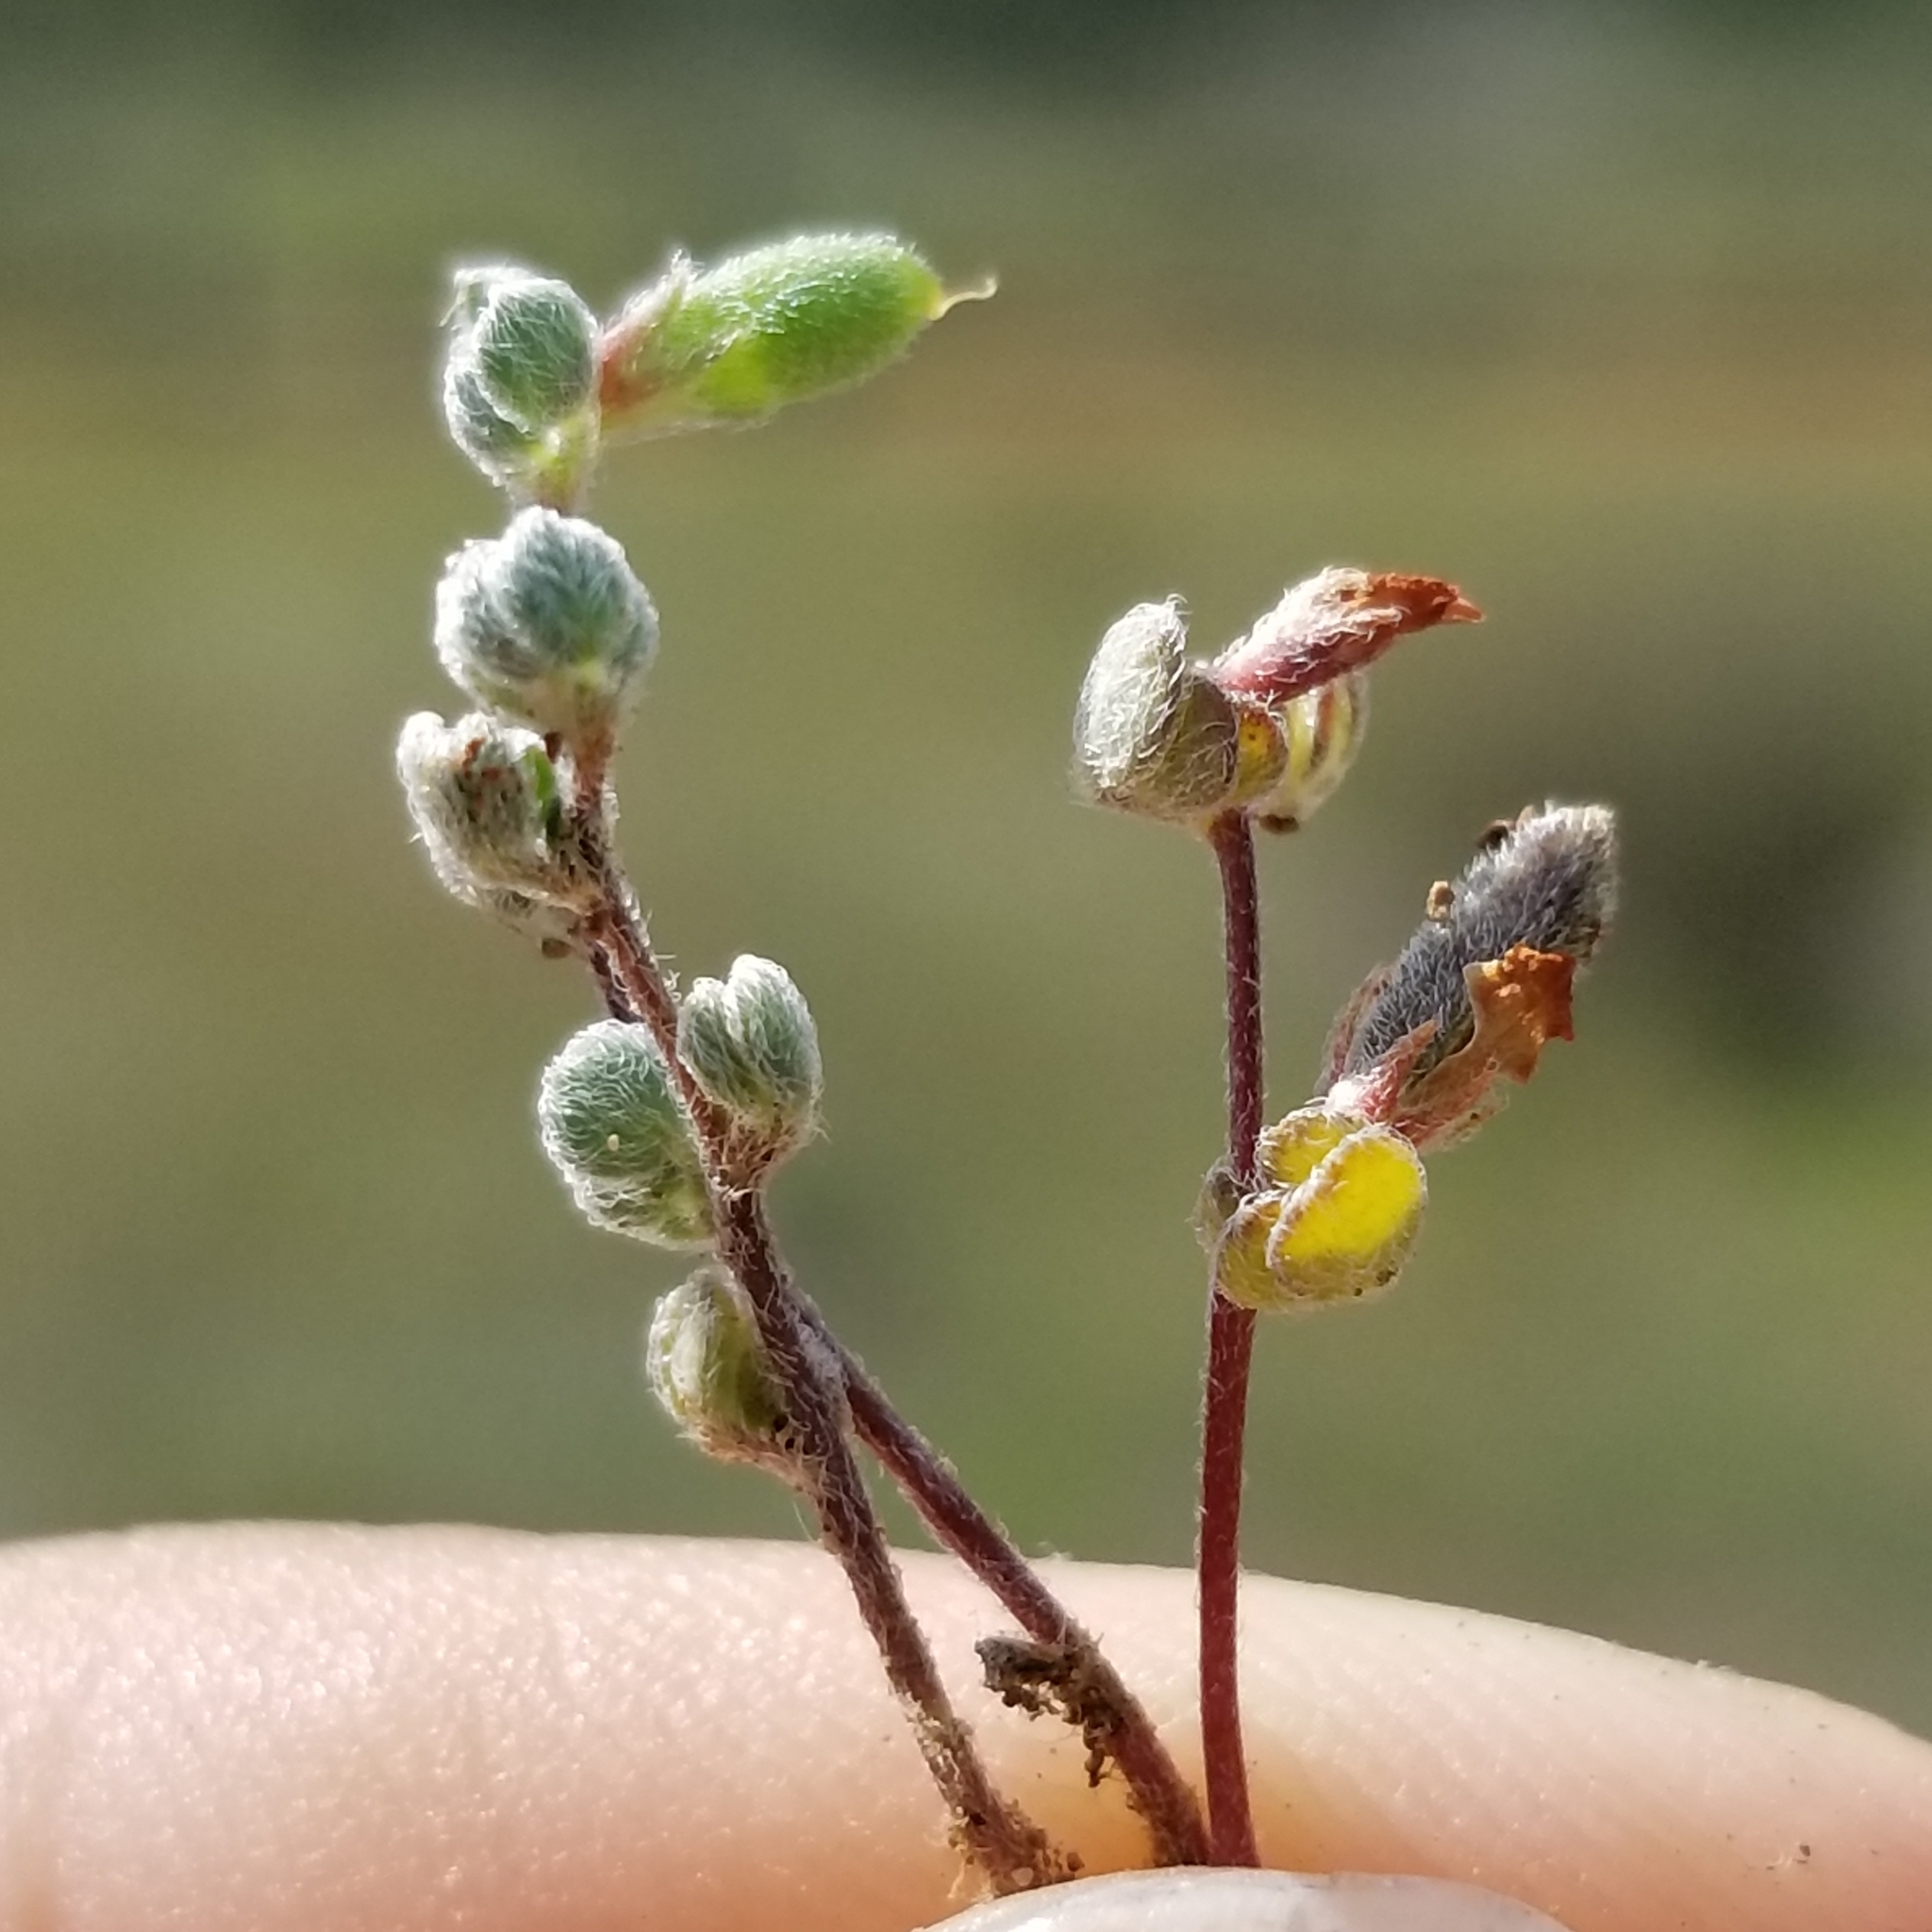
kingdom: Plantae
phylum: Tracheophyta
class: Magnoliopsida
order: Fabales
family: Fabaceae
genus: Acmispon
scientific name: Acmispon wrangelianus
